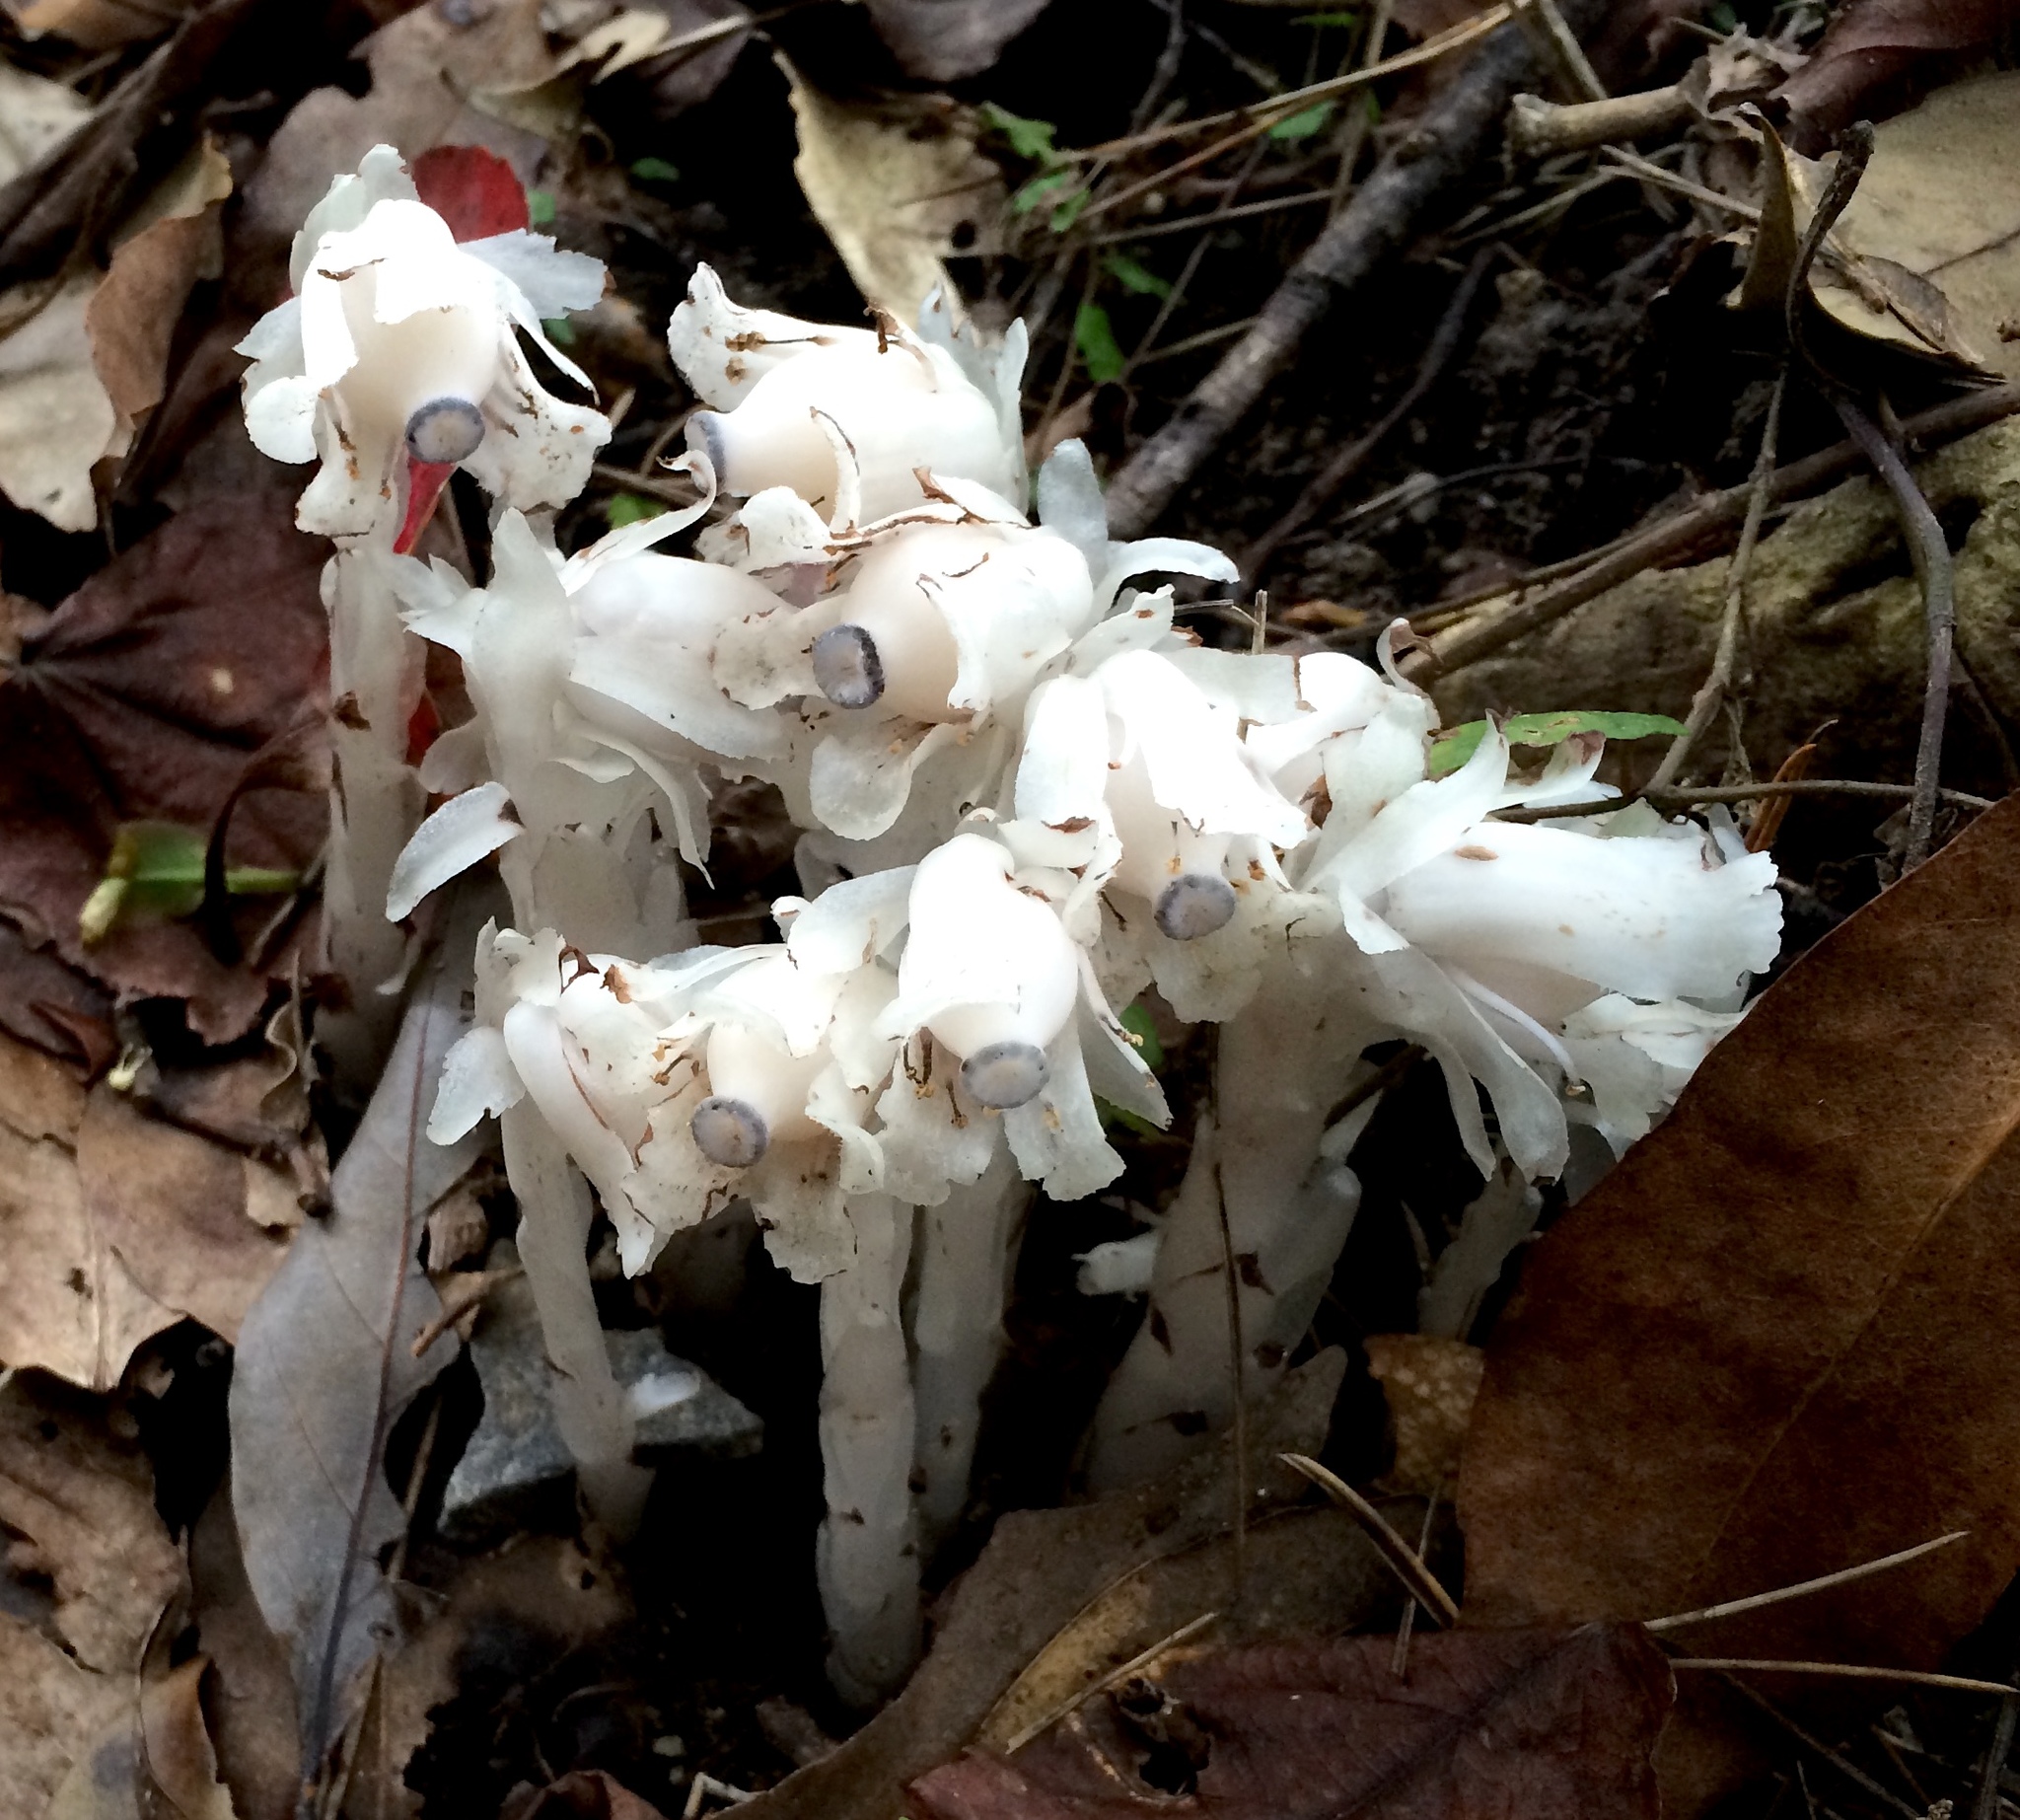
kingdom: Plantae
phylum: Tracheophyta
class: Magnoliopsida
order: Ericales
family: Ericaceae
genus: Monotropastrum
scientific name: Monotropastrum humile
